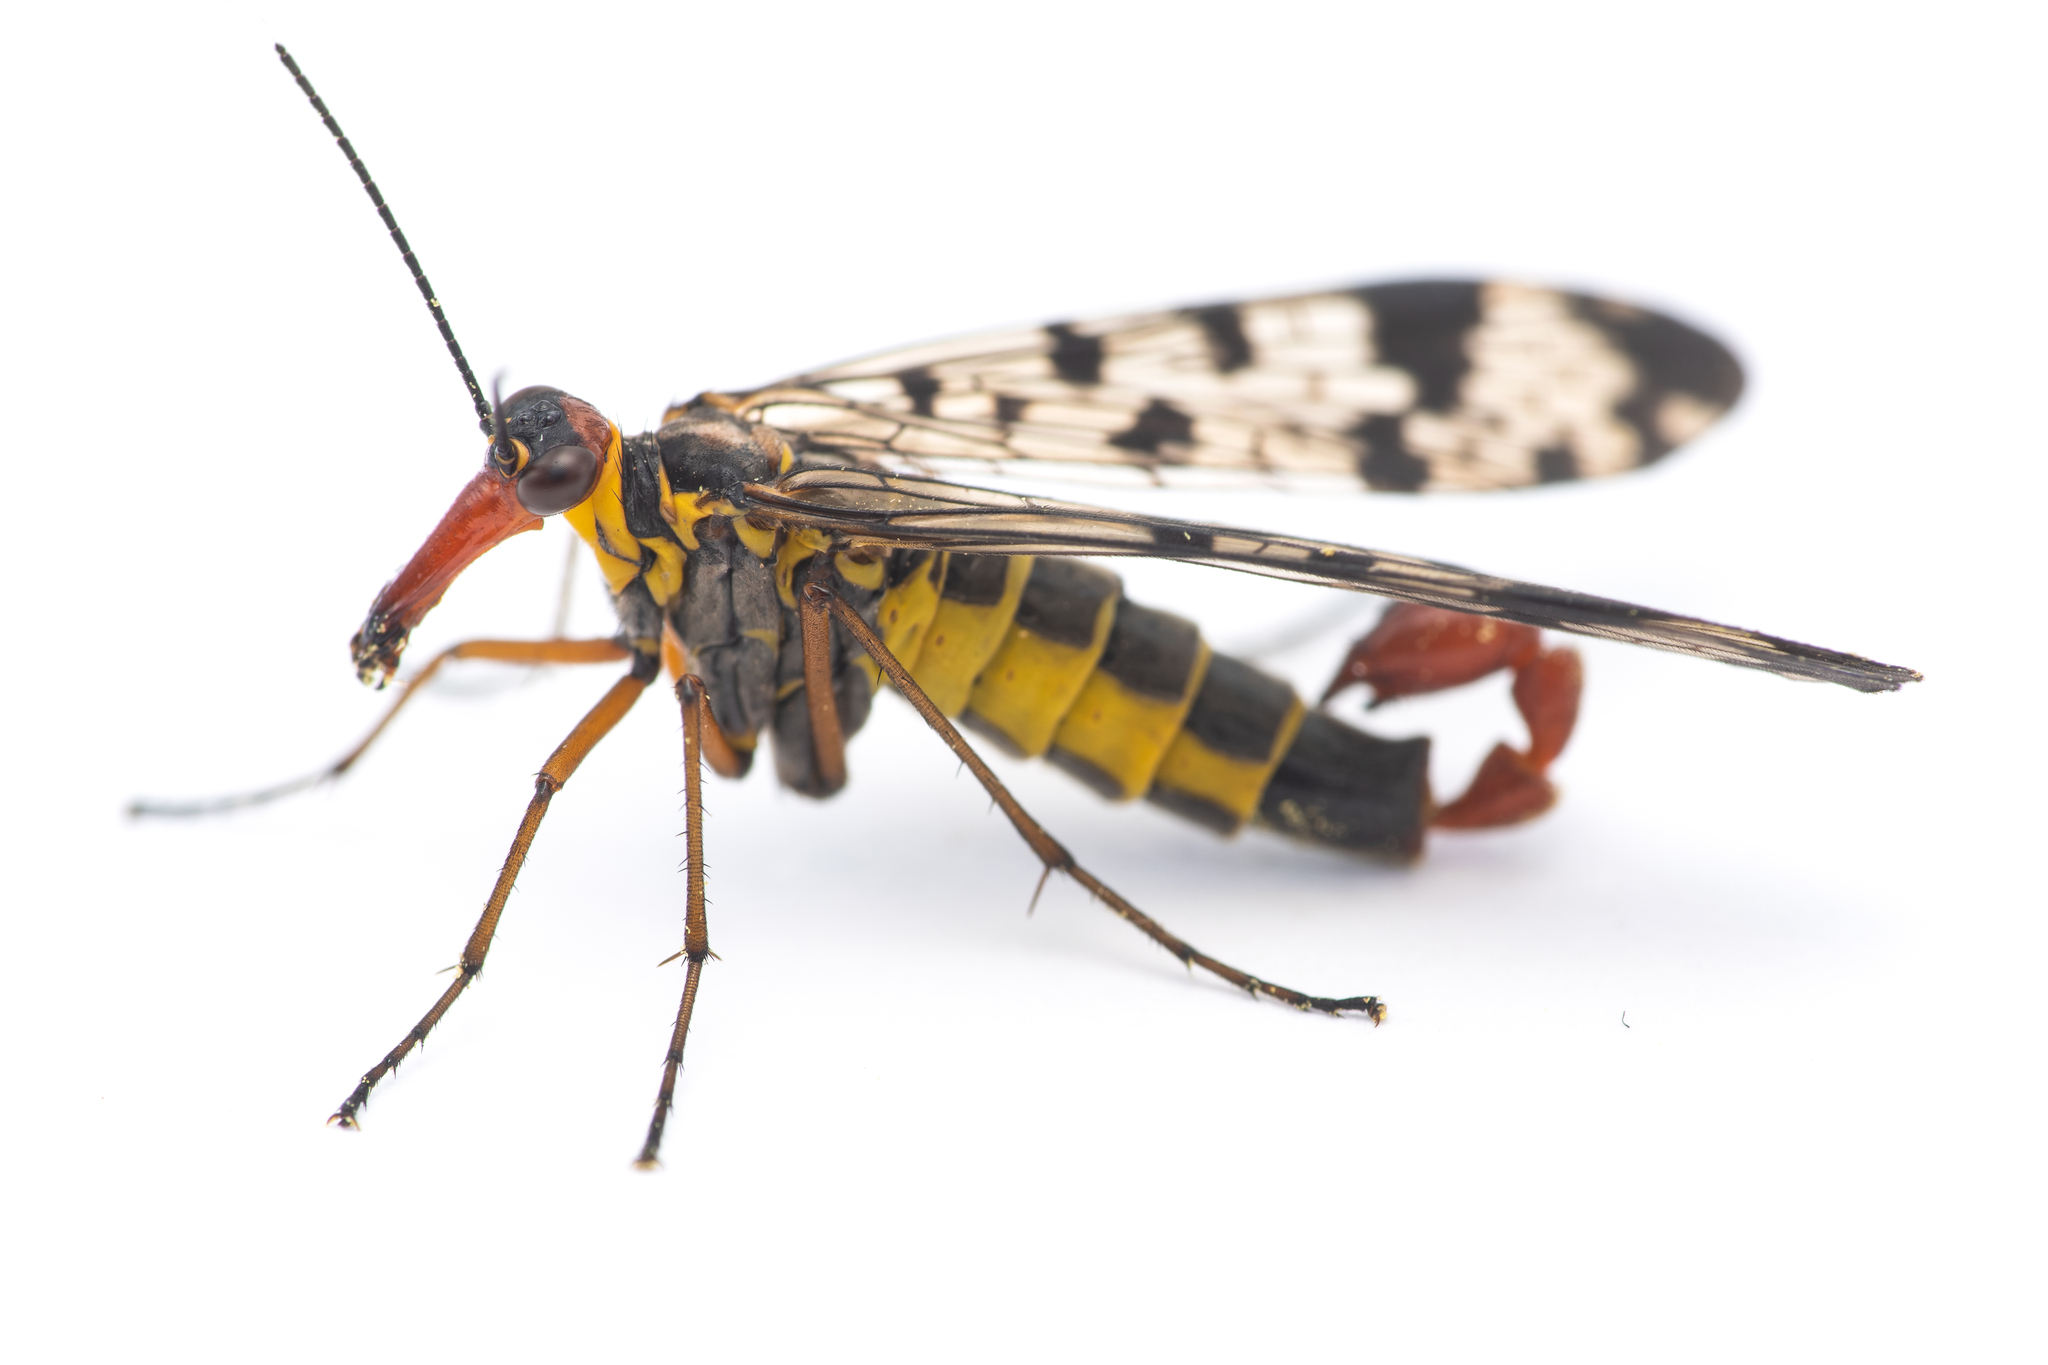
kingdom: Animalia
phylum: Arthropoda
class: Insecta
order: Mecoptera
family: Panorpidae
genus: Panorpa
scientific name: Panorpa meridionalis
